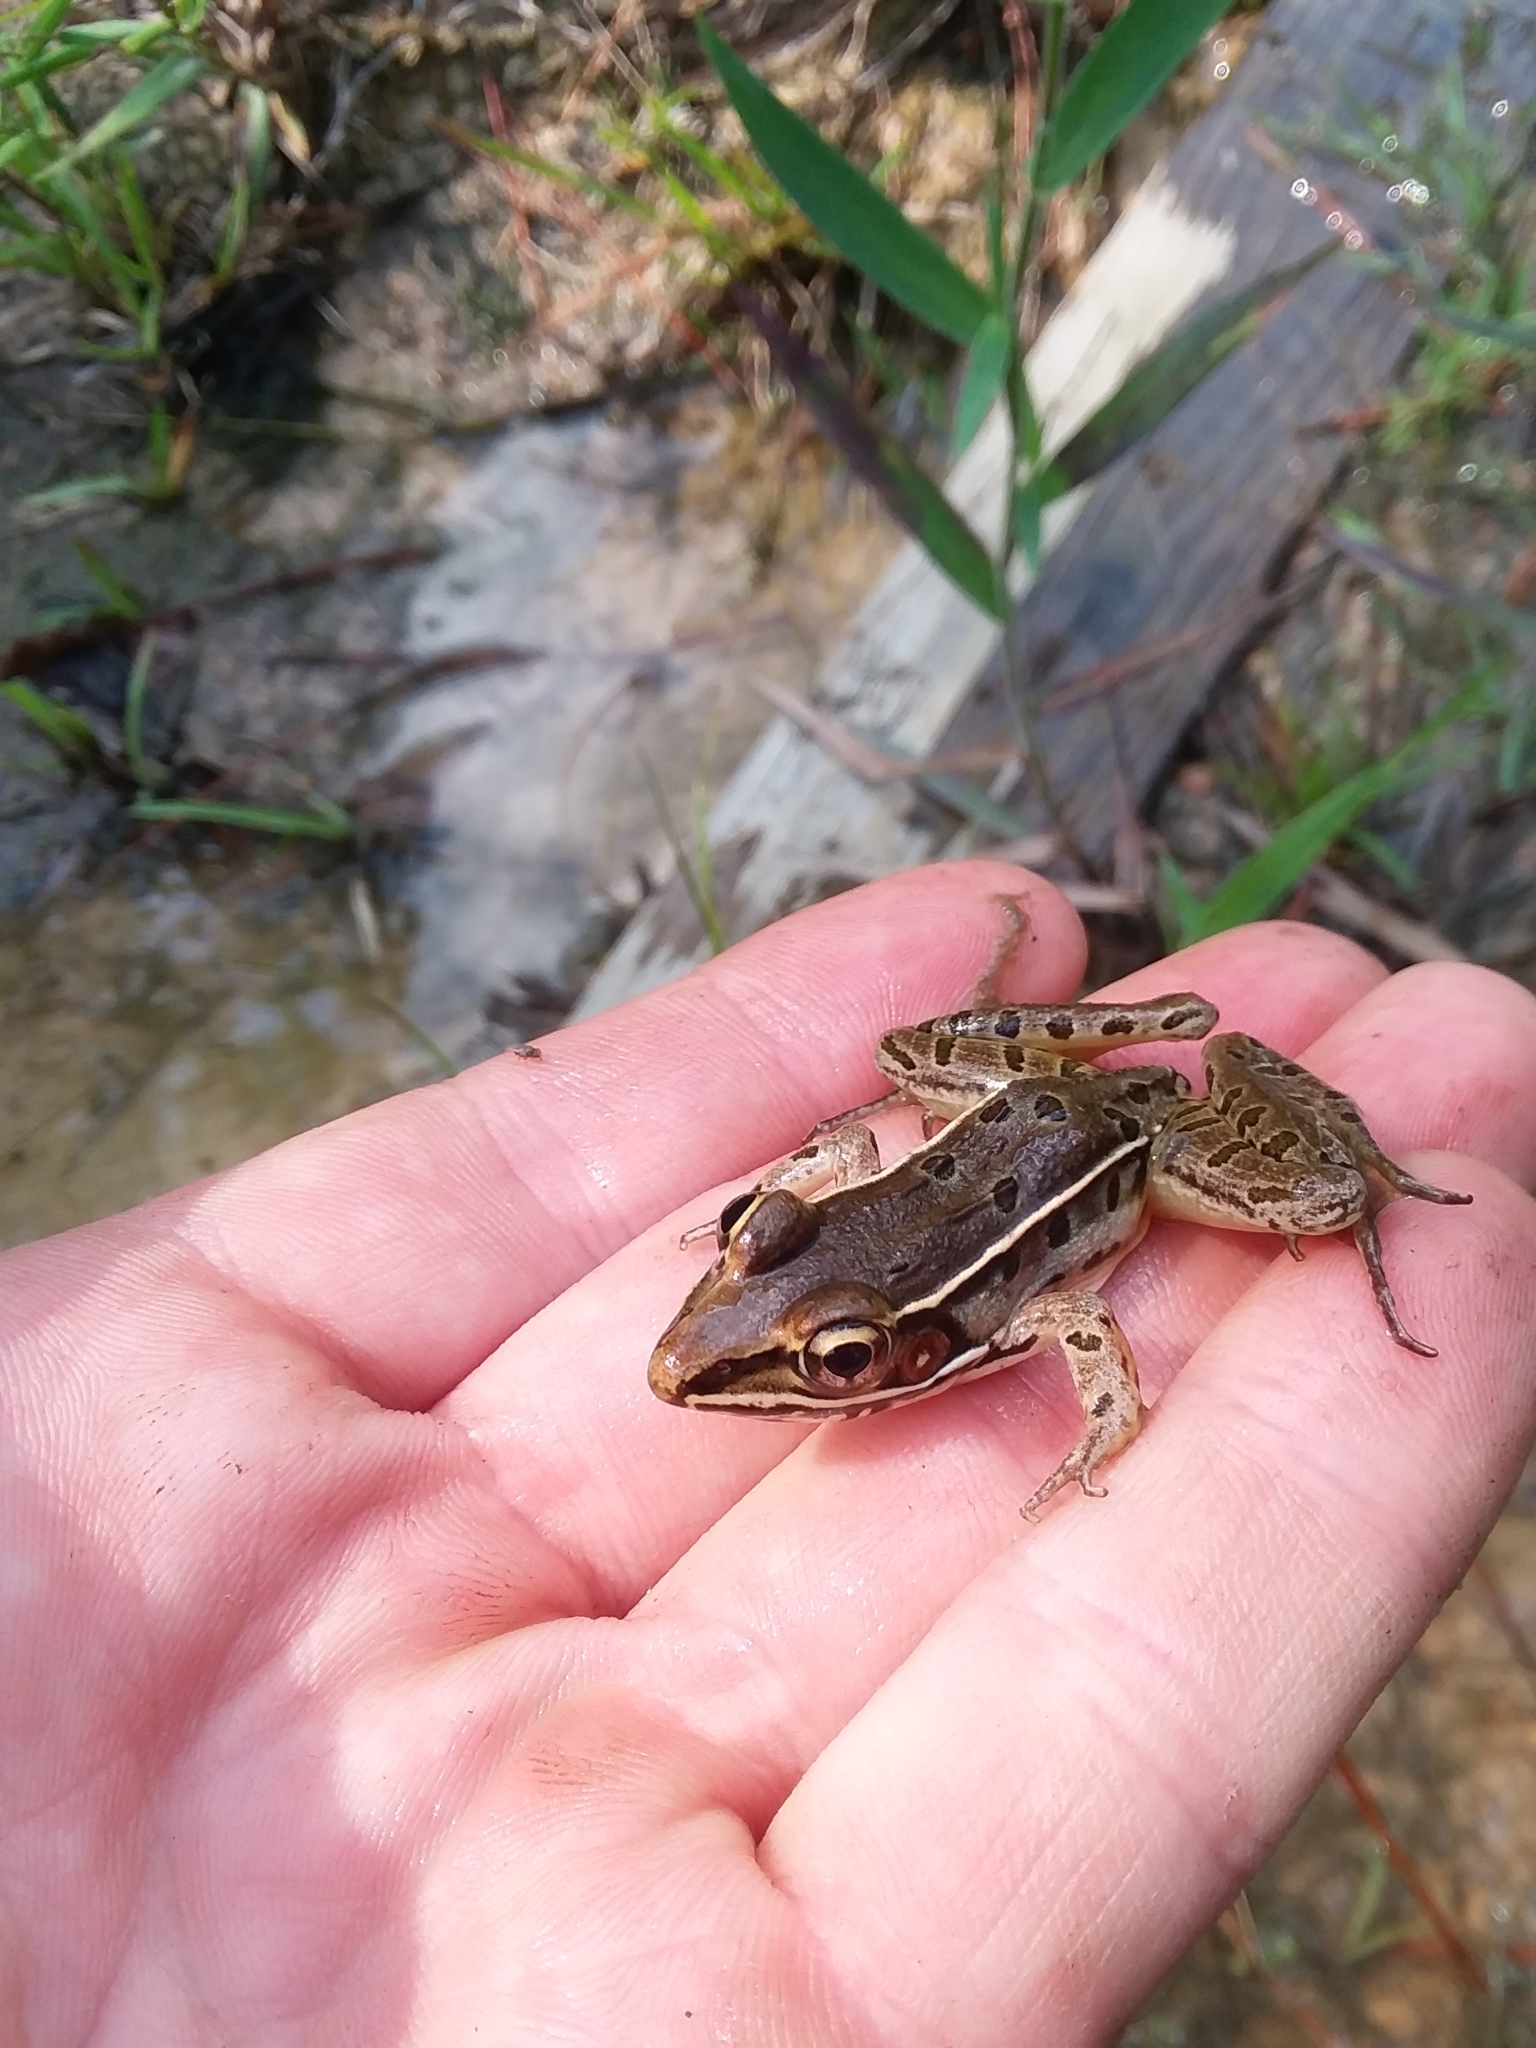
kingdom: Animalia
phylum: Chordata
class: Amphibia
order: Anura
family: Ranidae
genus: Lithobates
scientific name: Lithobates sphenocephalus
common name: Southern leopard frog
